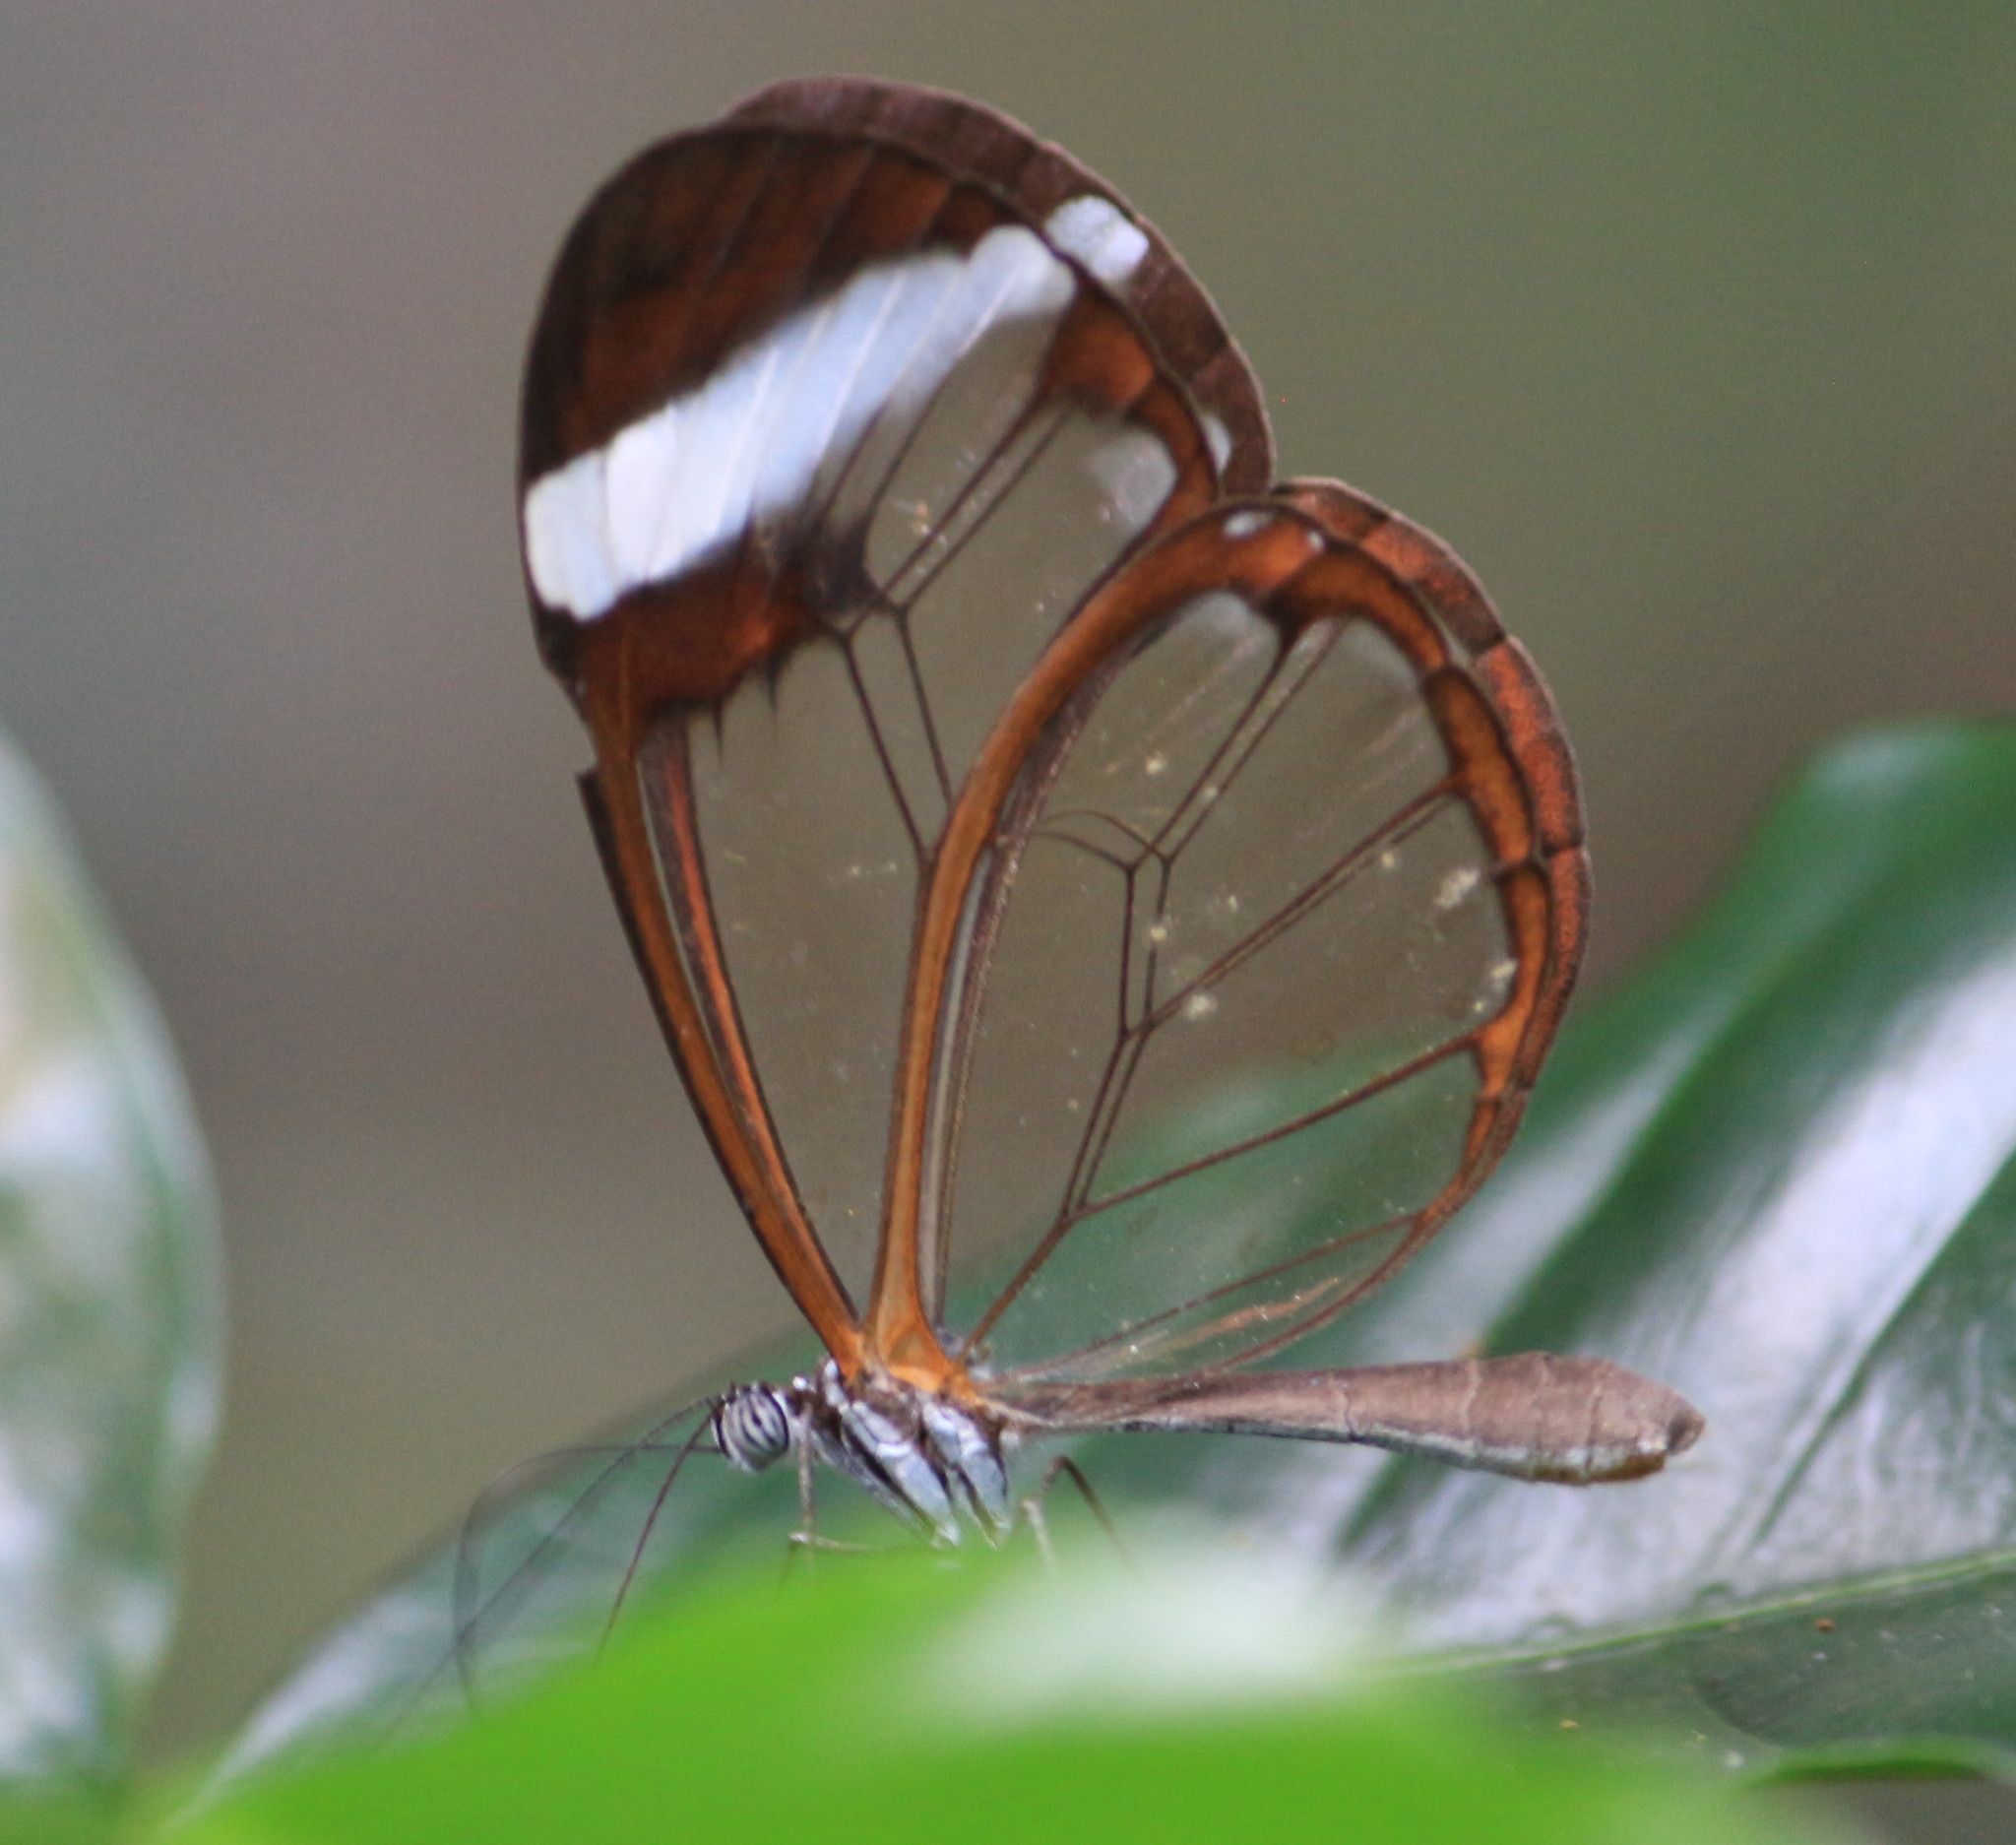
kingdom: Animalia
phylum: Arthropoda
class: Insecta
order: Lepidoptera
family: Nymphalidae
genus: Greta
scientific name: Greta morgane
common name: Thick-tipped greta
